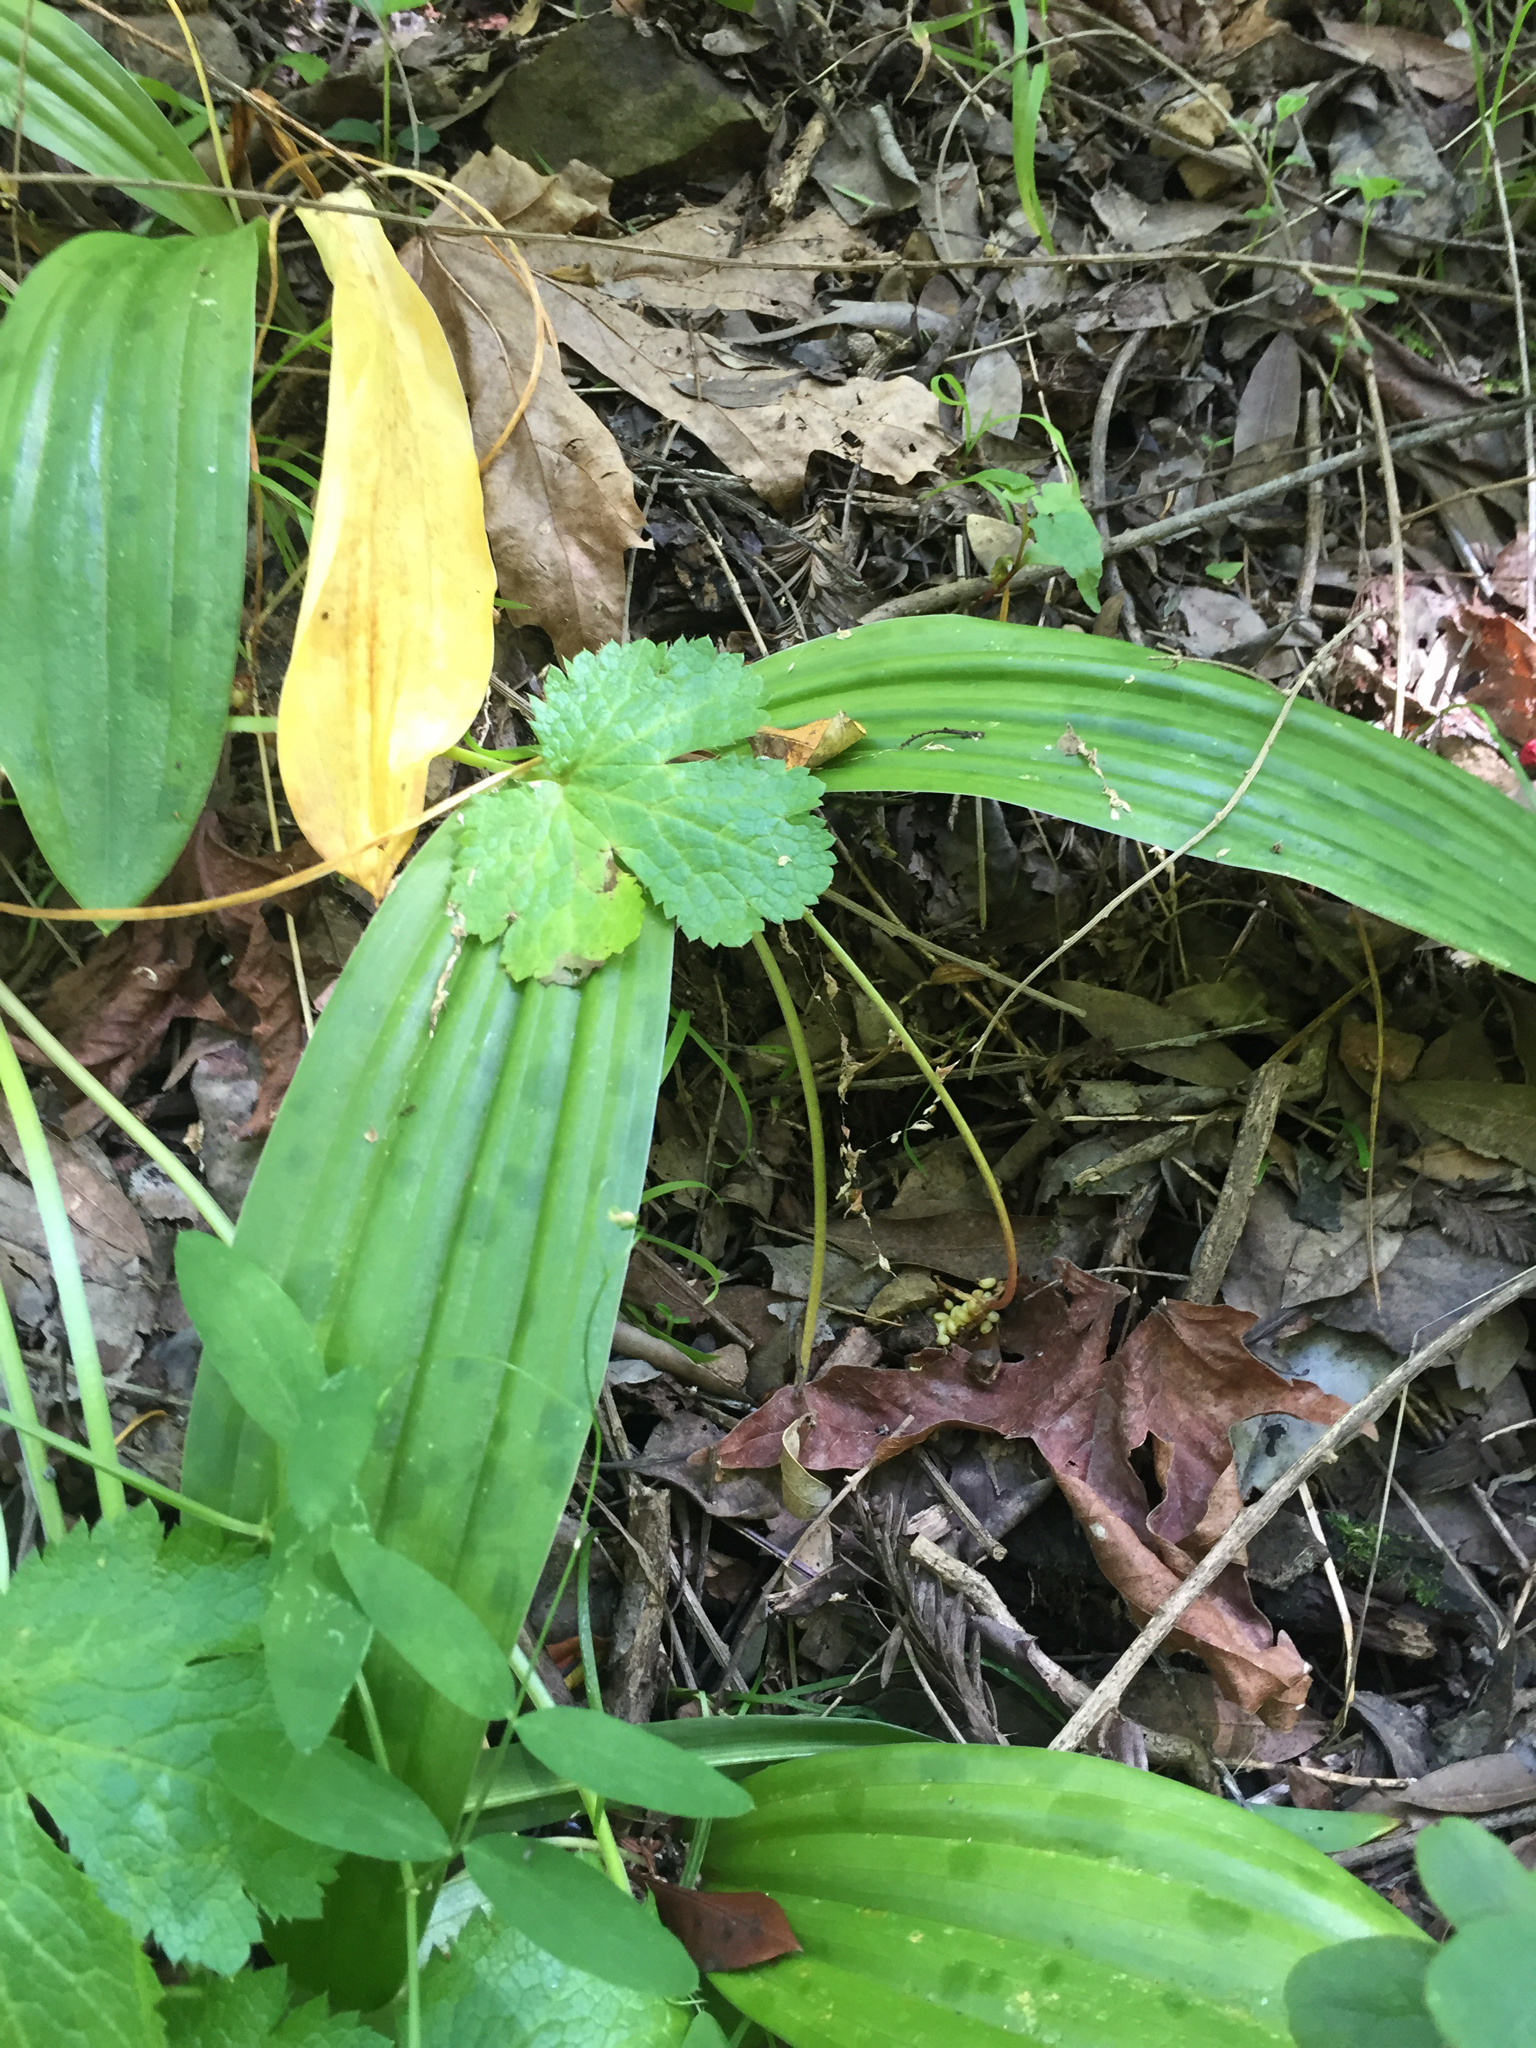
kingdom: Plantae
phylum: Tracheophyta
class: Liliopsida
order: Liliales
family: Liliaceae
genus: Scoliopus
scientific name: Scoliopus bigelovii
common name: Foetid adder's-tongue
